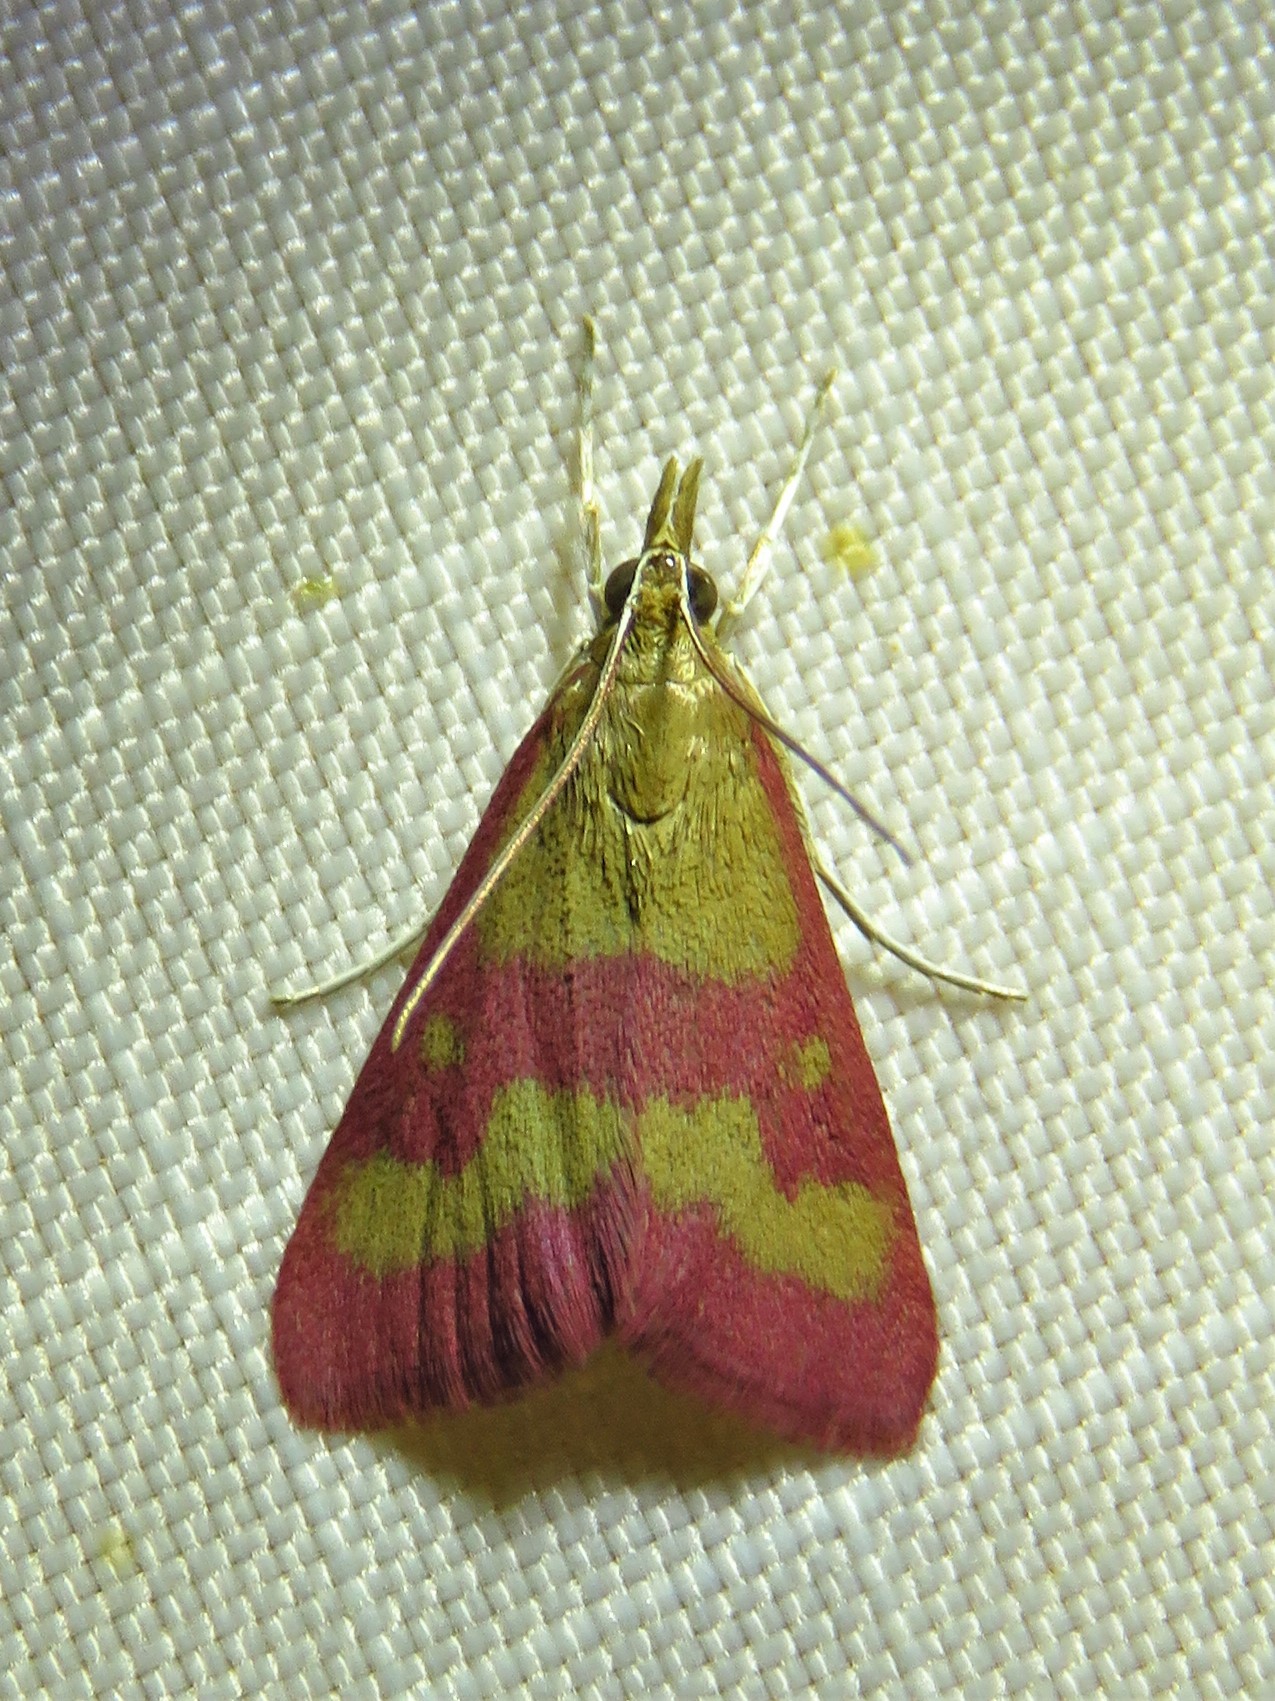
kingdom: Animalia
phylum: Arthropoda
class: Insecta
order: Lepidoptera
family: Crambidae
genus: Pyrausta
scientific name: Pyrausta laticlavia
